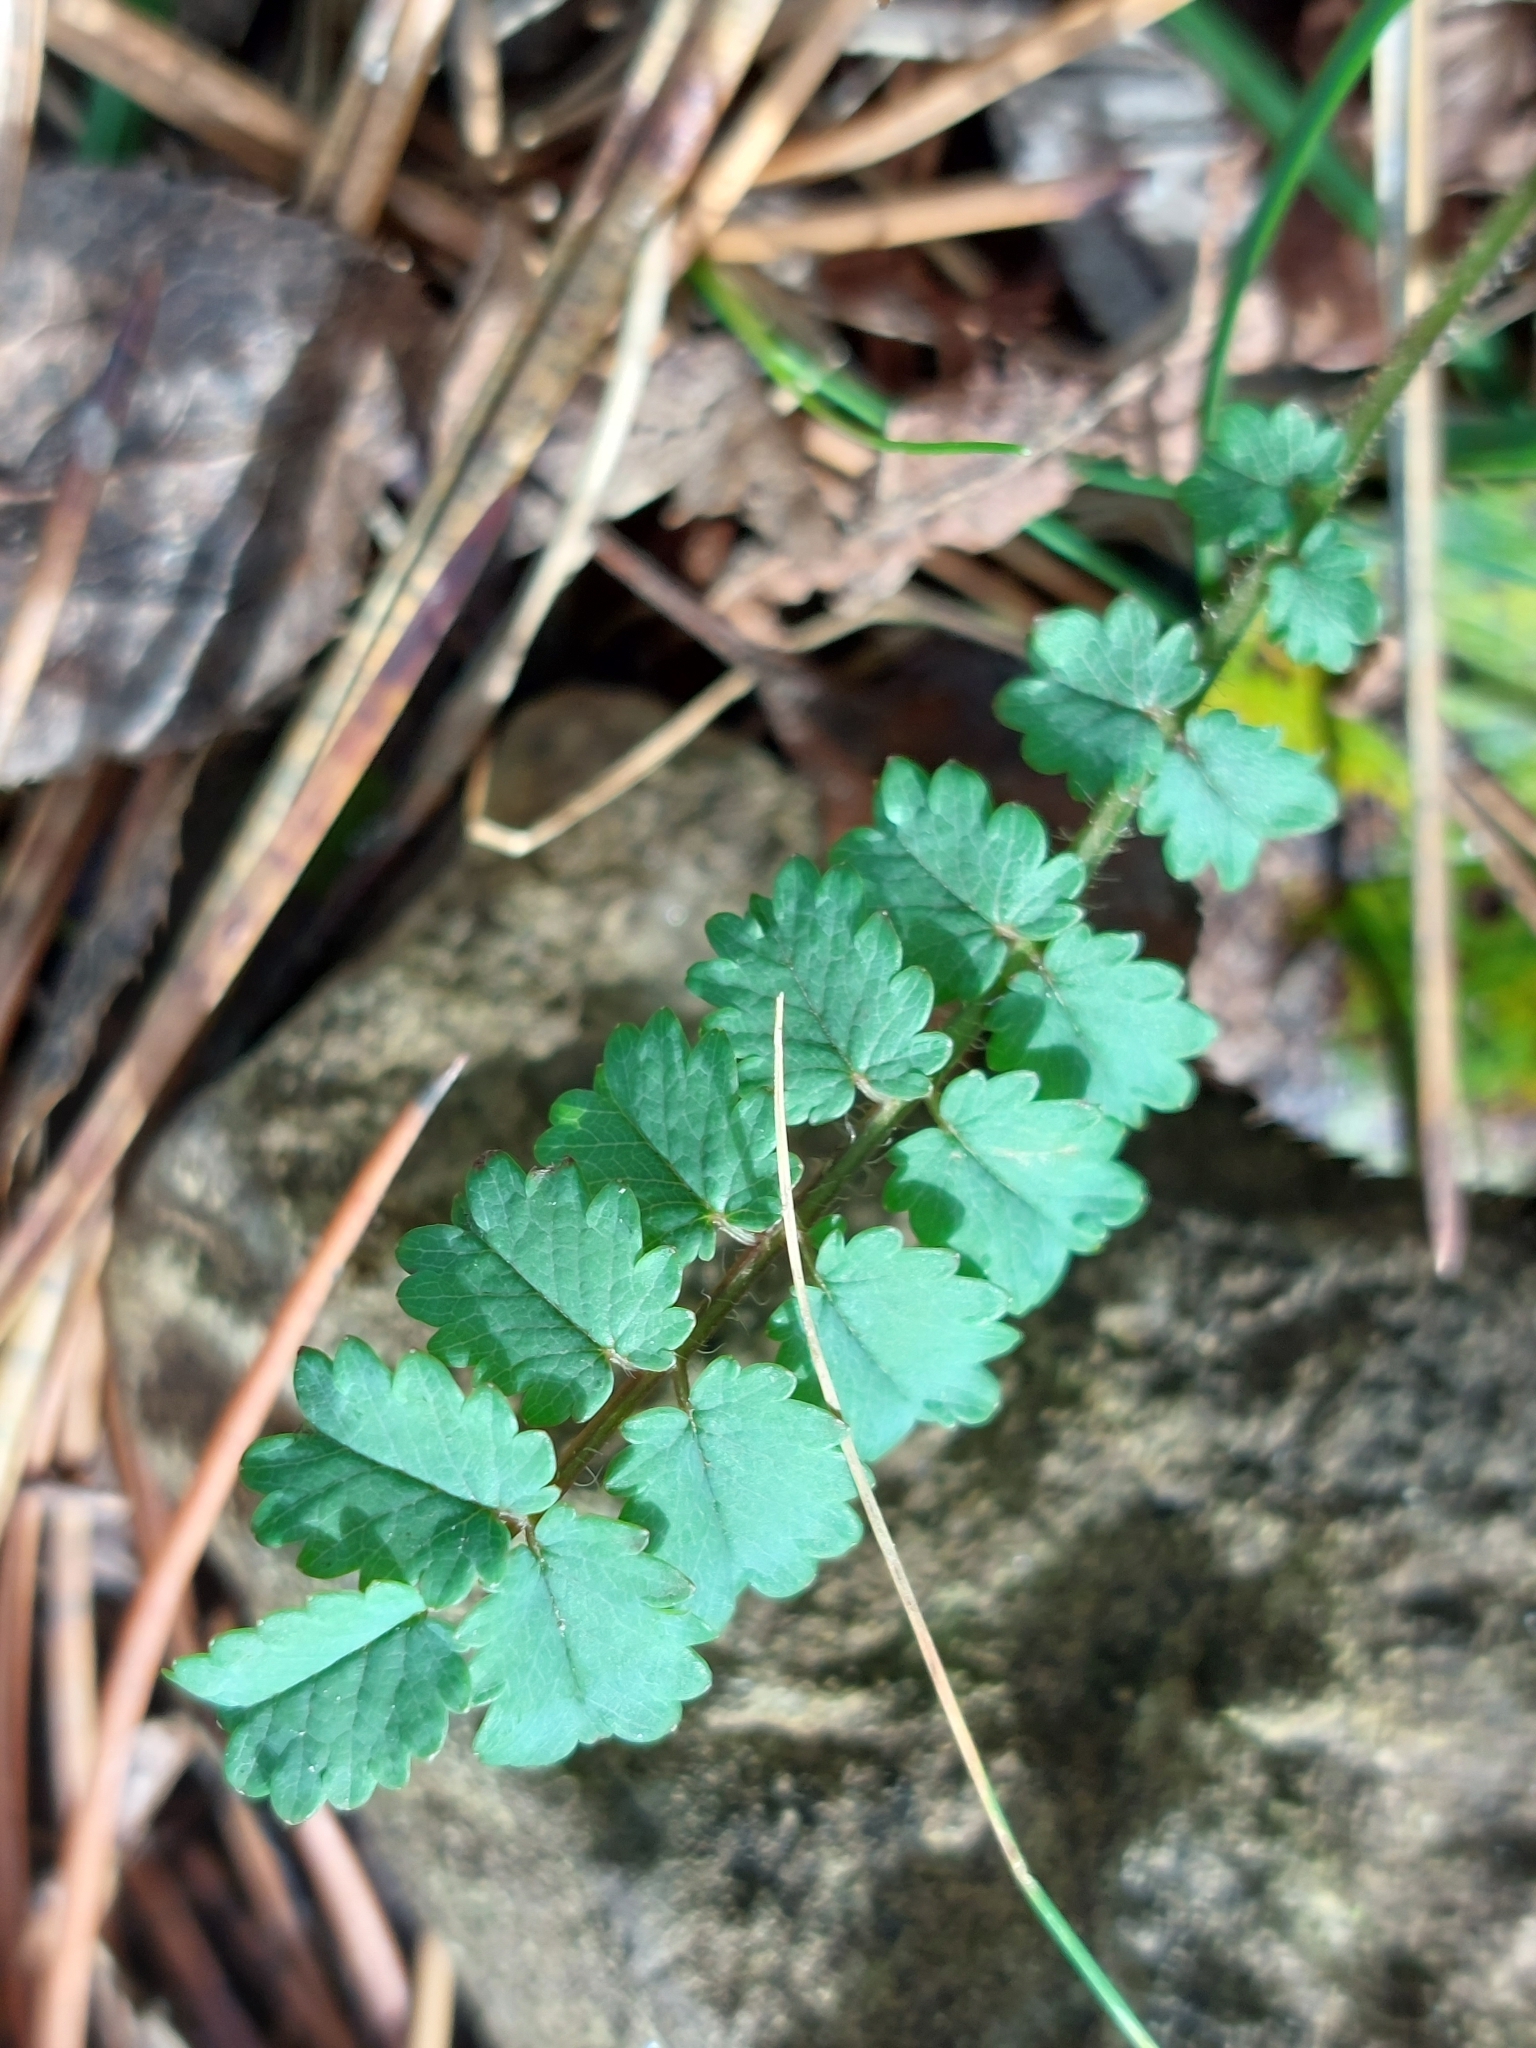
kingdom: Plantae
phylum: Tracheophyta
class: Magnoliopsida
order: Rosales
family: Rosaceae
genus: Poterium
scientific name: Poterium sanguisorba
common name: Salad burnet
